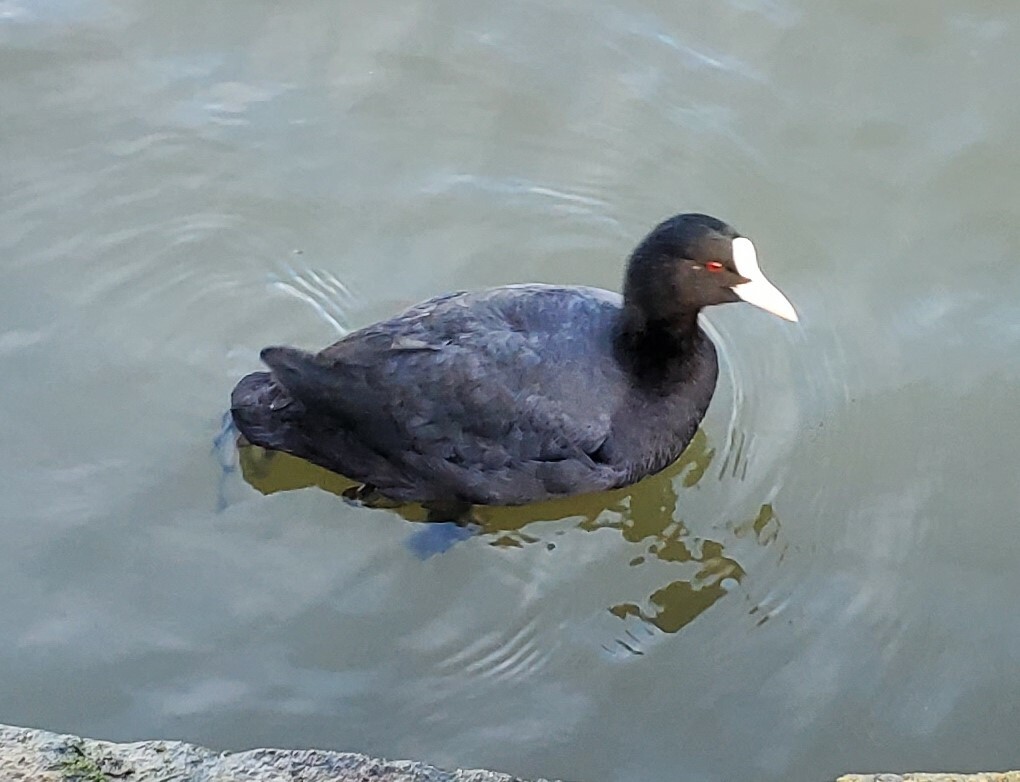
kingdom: Animalia
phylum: Chordata
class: Aves
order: Gruiformes
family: Rallidae
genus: Fulica
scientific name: Fulica atra
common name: Eurasian coot
